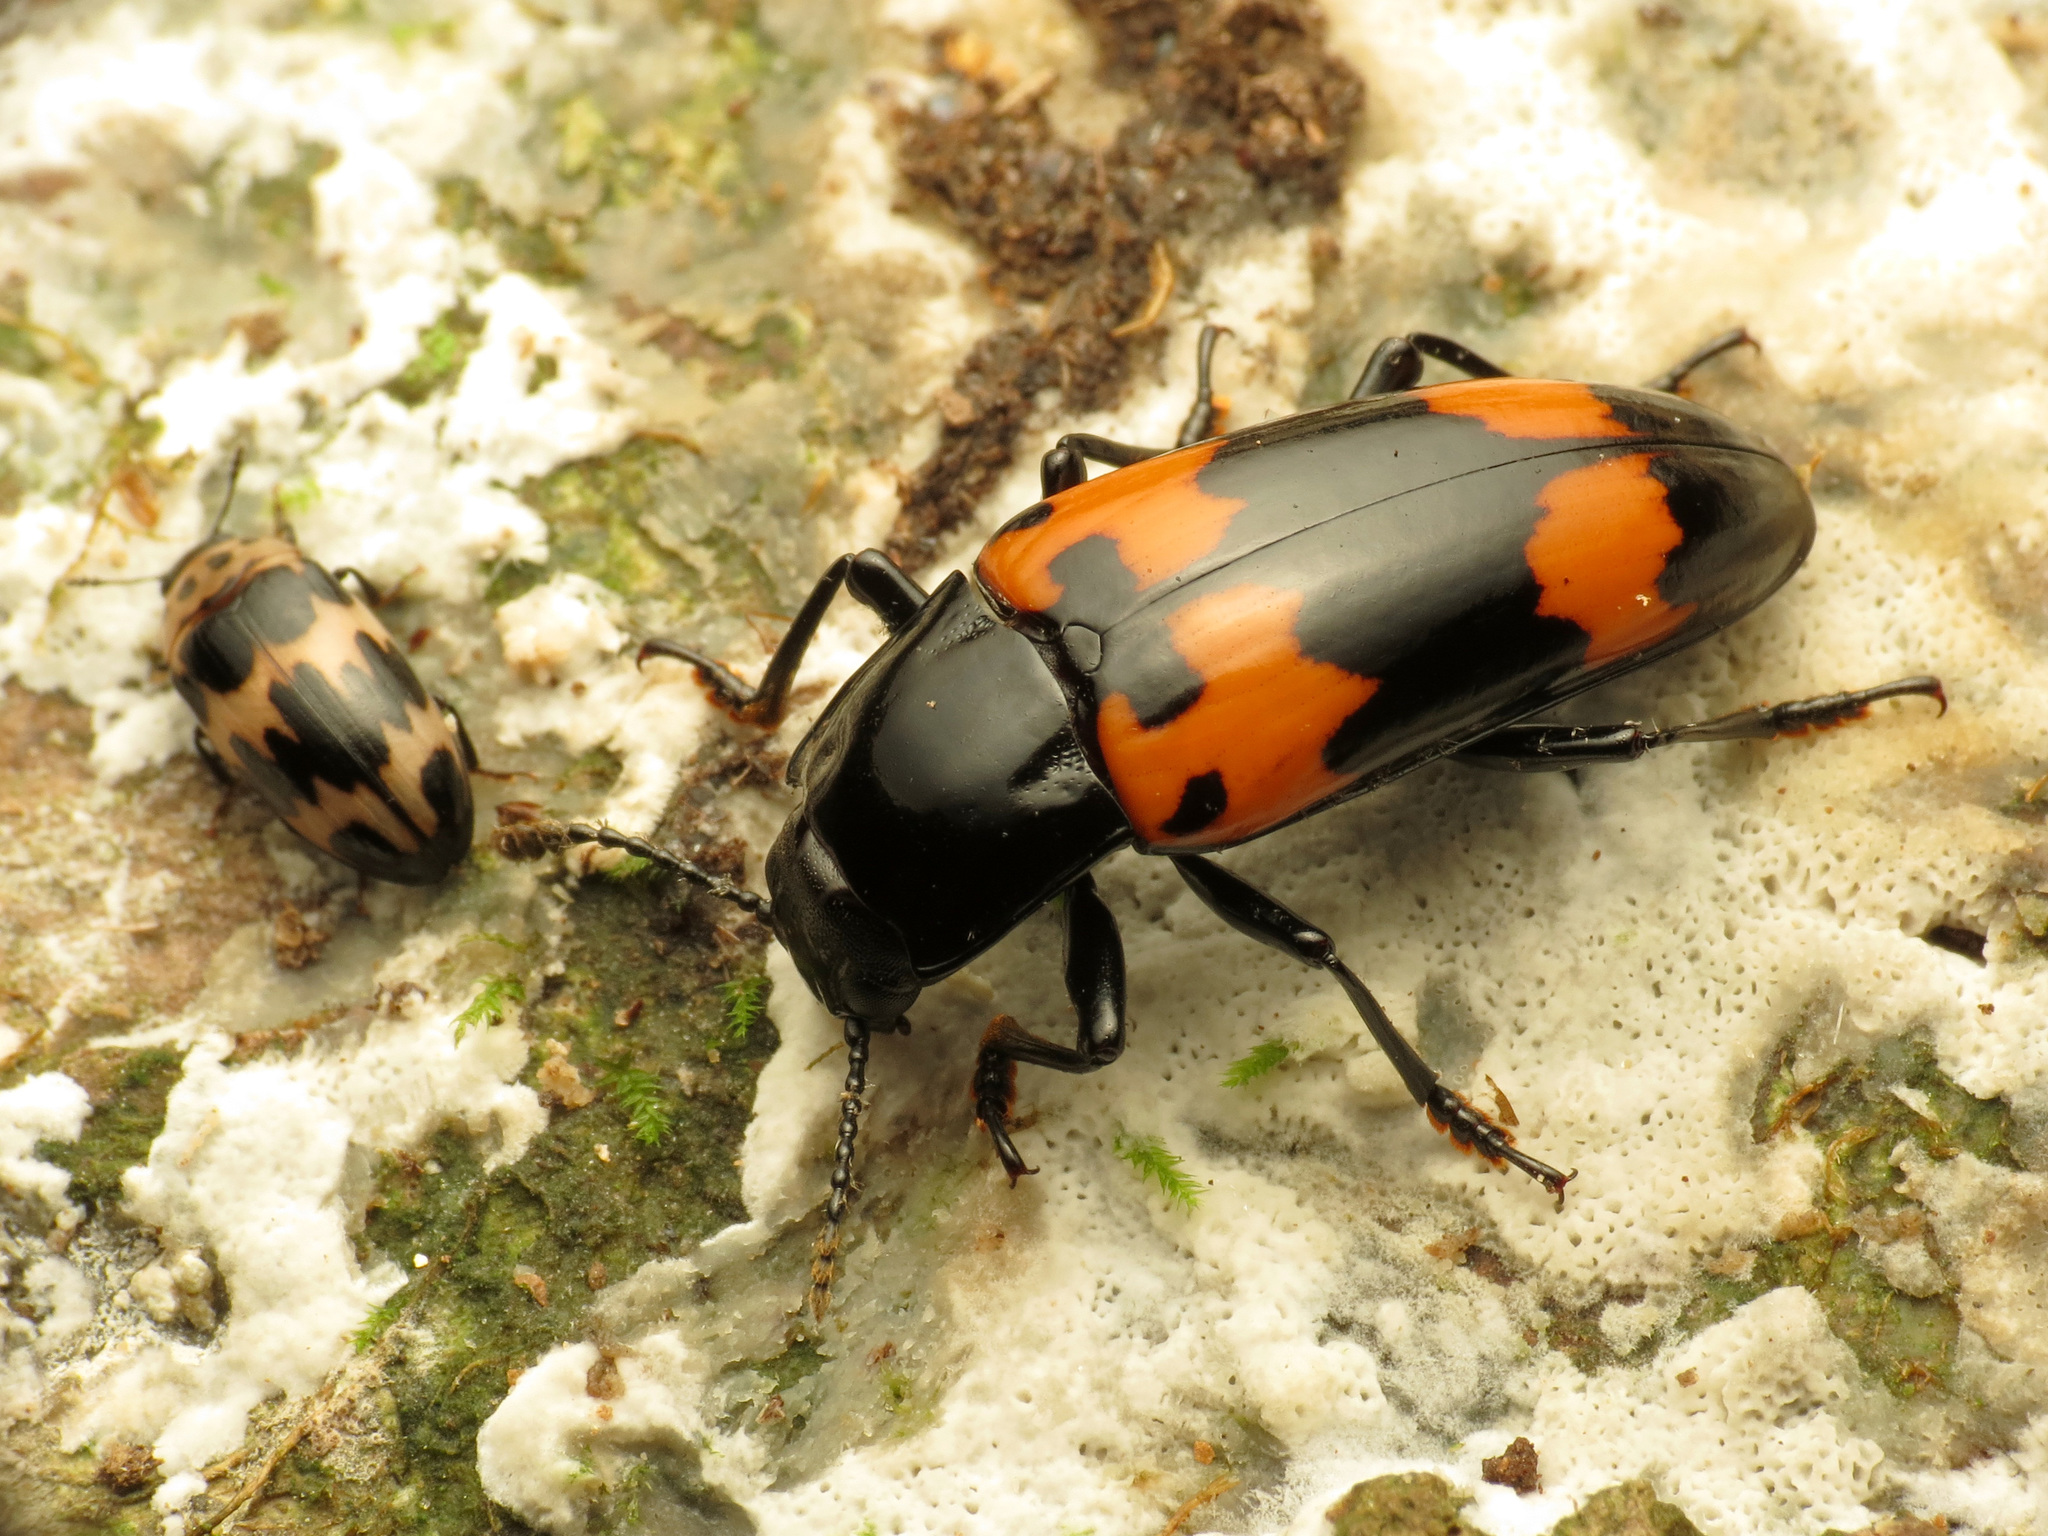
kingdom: Animalia
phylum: Arthropoda
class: Insecta
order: Coleoptera
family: Erotylidae
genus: Megalodacne
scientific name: Megalodacne heros
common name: Pleasing fungus beetle
